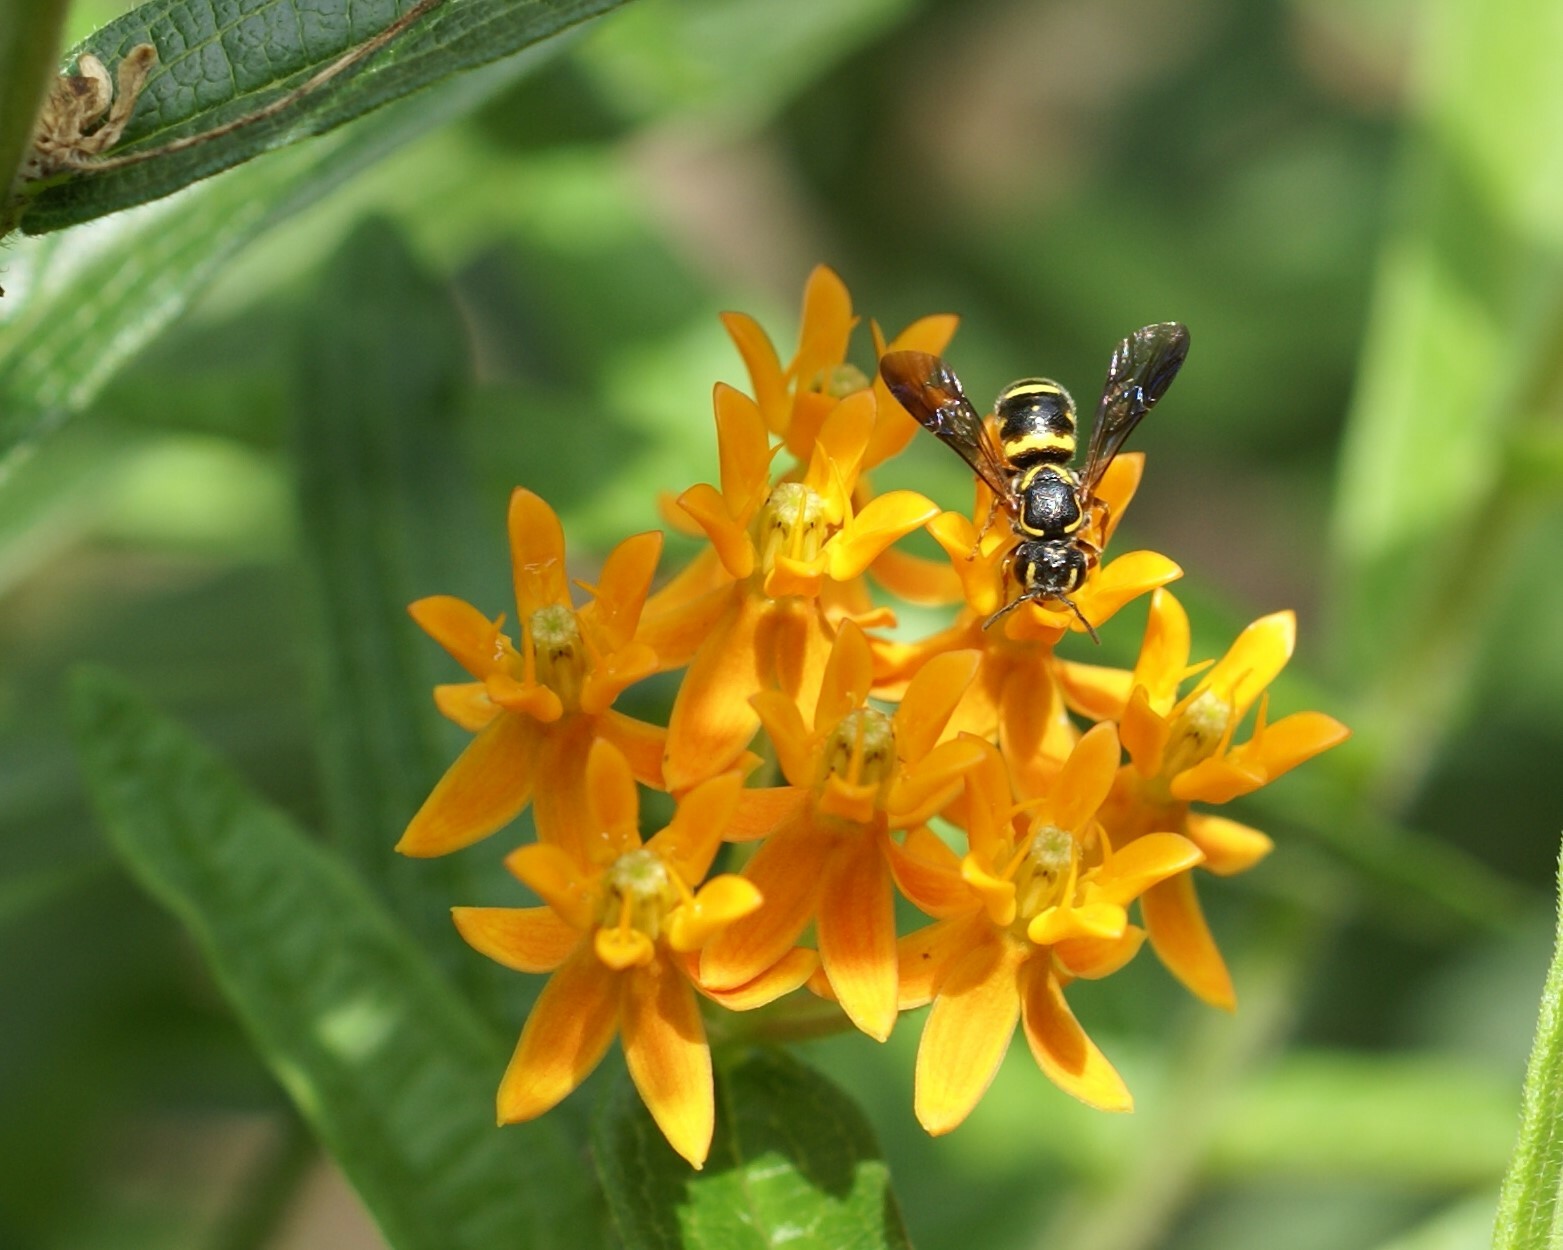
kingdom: Animalia
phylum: Arthropoda
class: Insecta
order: Hymenoptera
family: Megachilidae
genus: Stelis
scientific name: Stelis louisae
